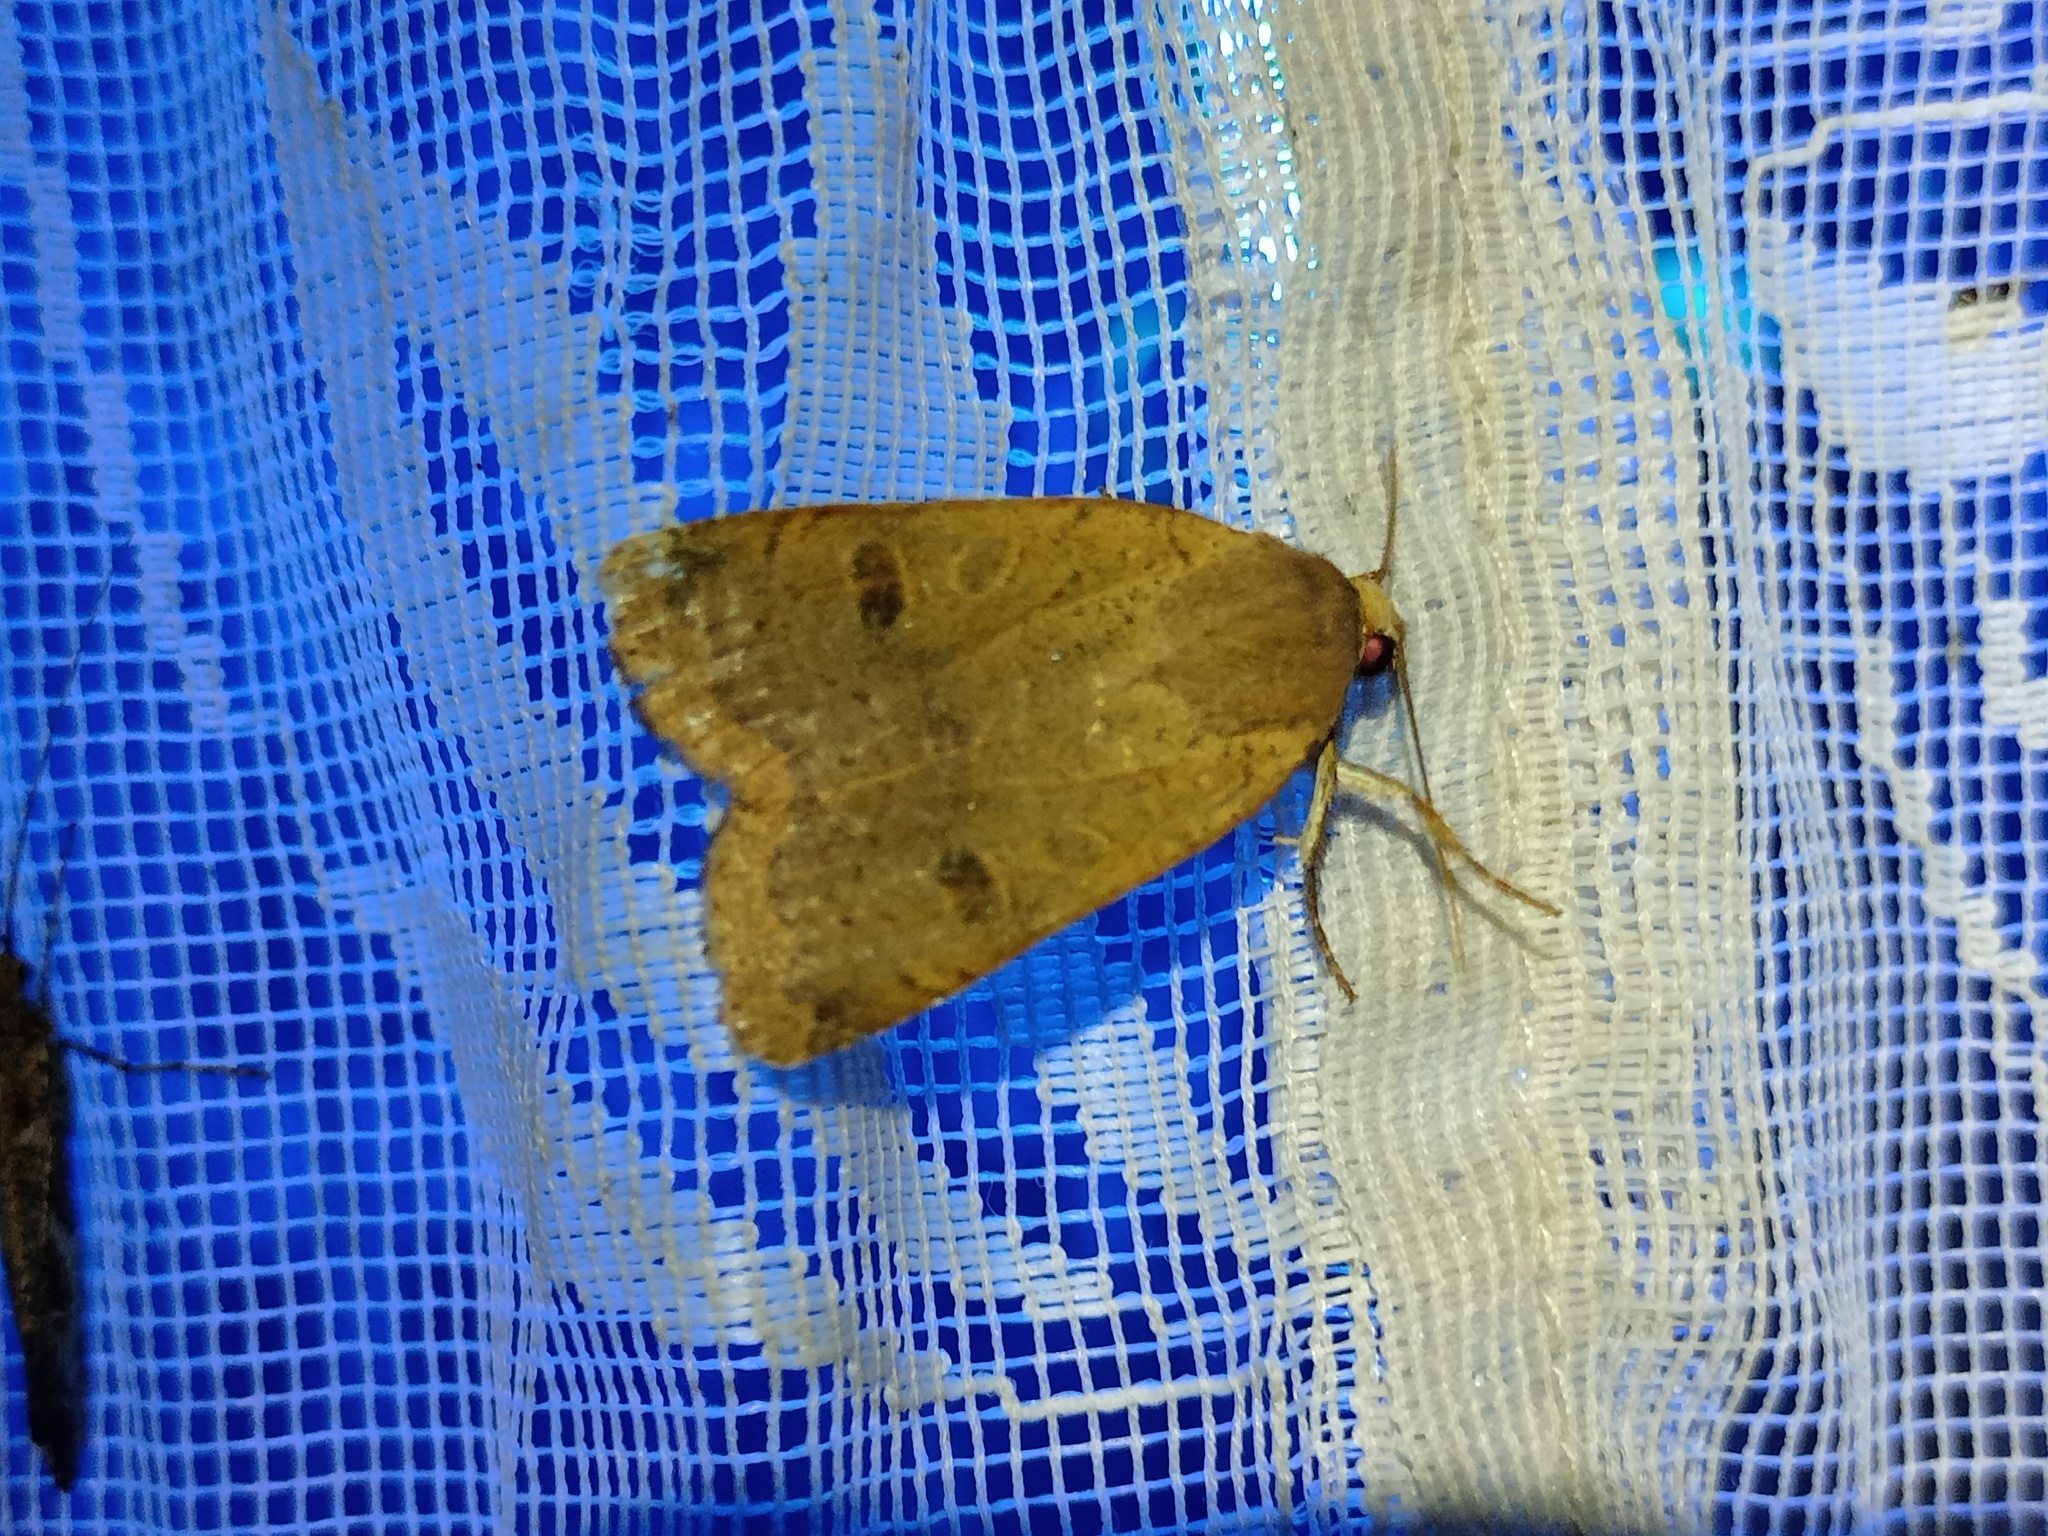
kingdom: Animalia
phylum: Arthropoda
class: Insecta
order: Lepidoptera
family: Noctuidae
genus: Noctua
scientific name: Noctua comes
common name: Lesser yellow underwing
